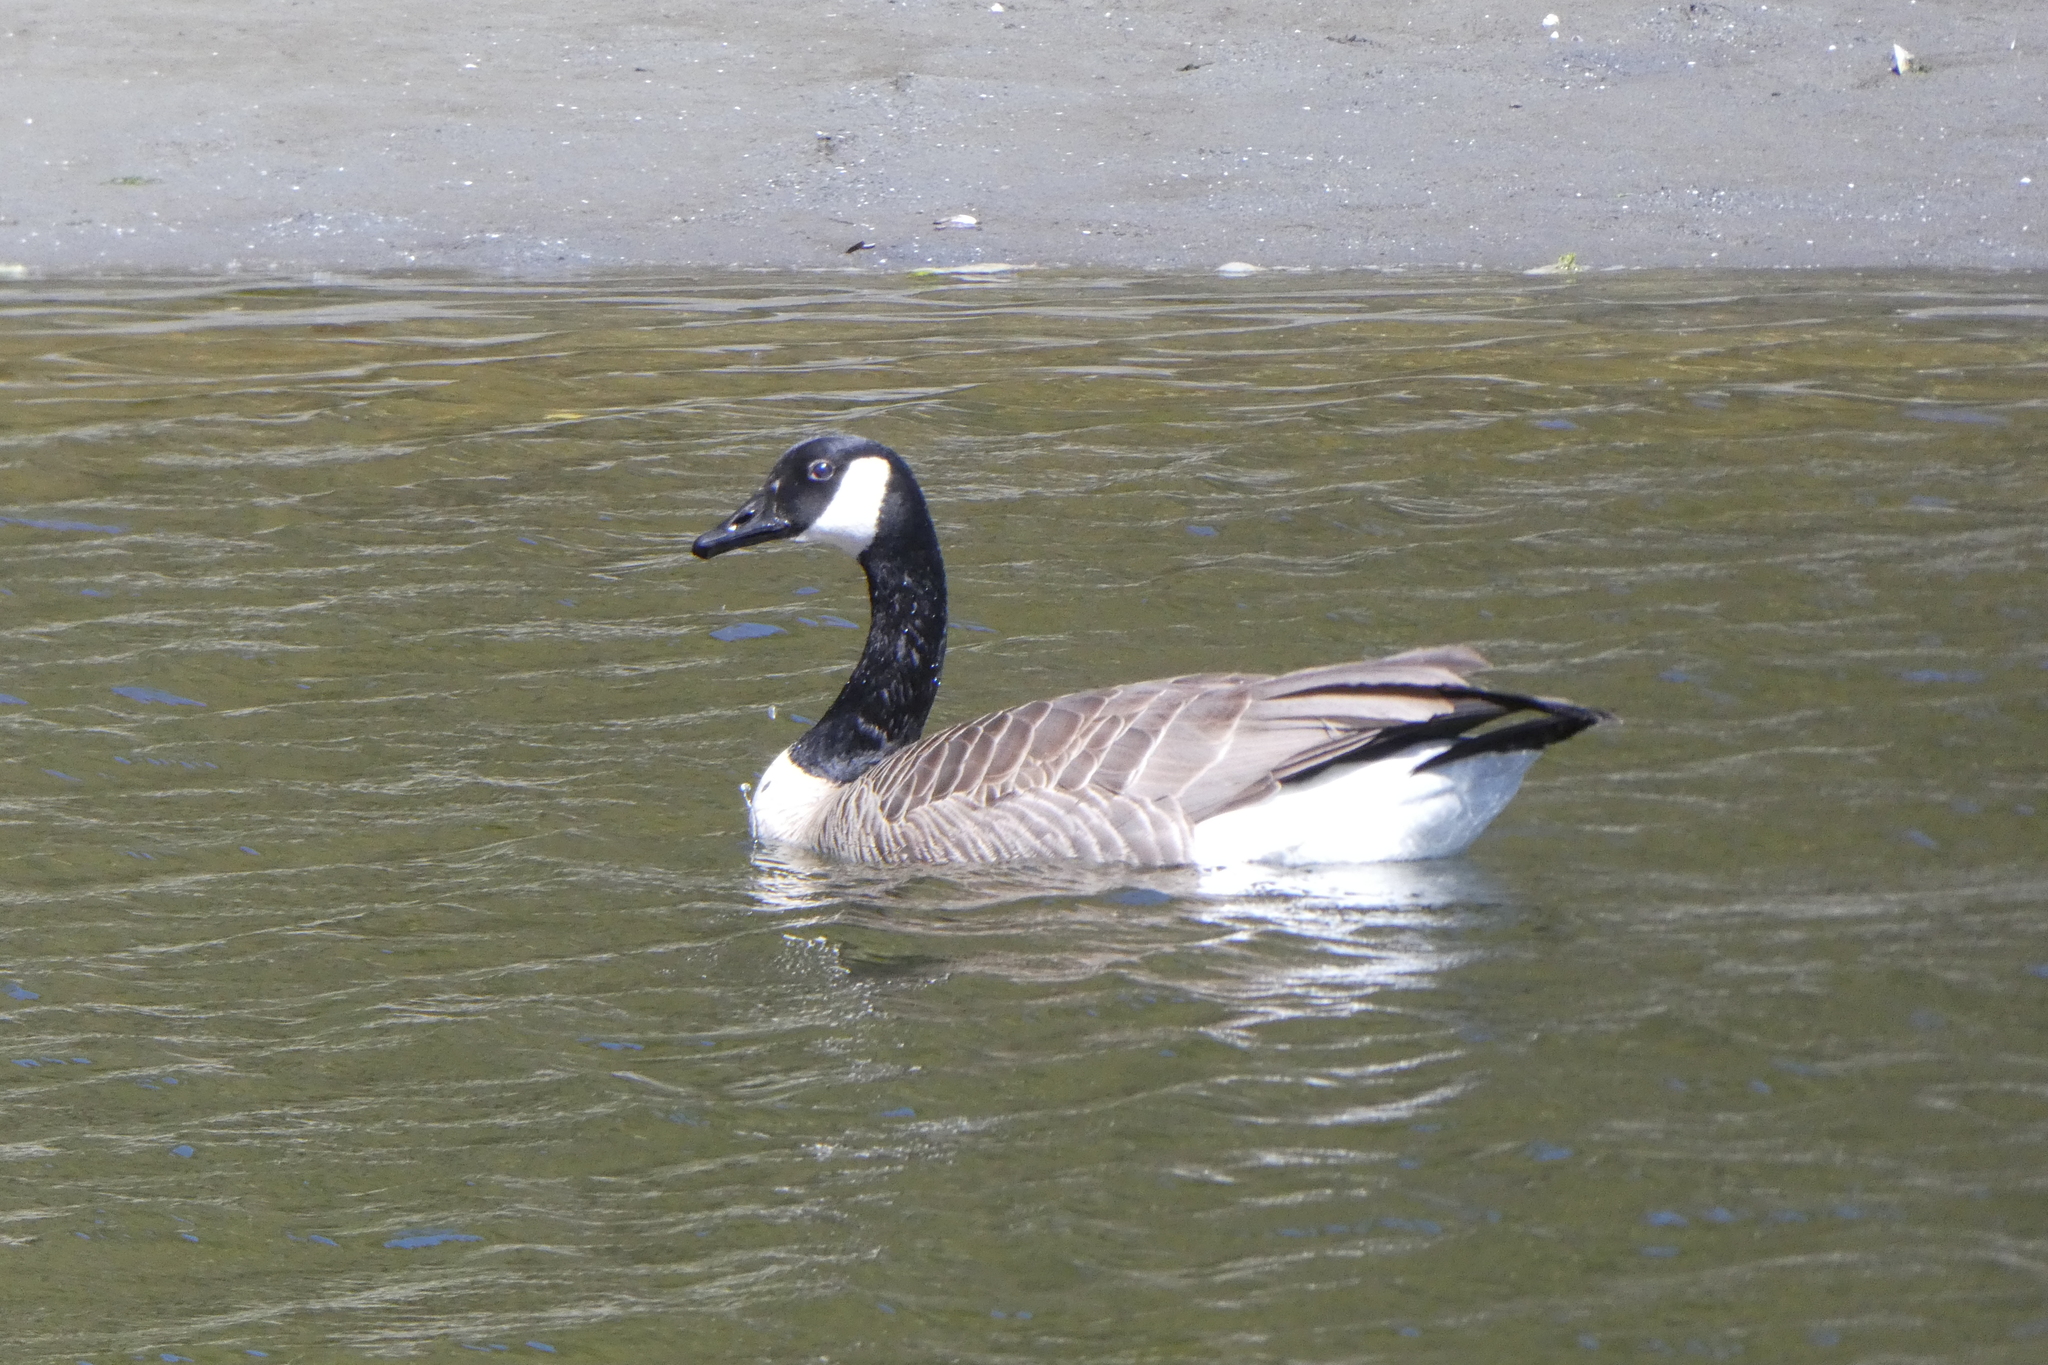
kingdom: Animalia
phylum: Chordata
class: Aves
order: Anseriformes
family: Anatidae
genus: Branta
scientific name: Branta canadensis
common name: Canada goose
